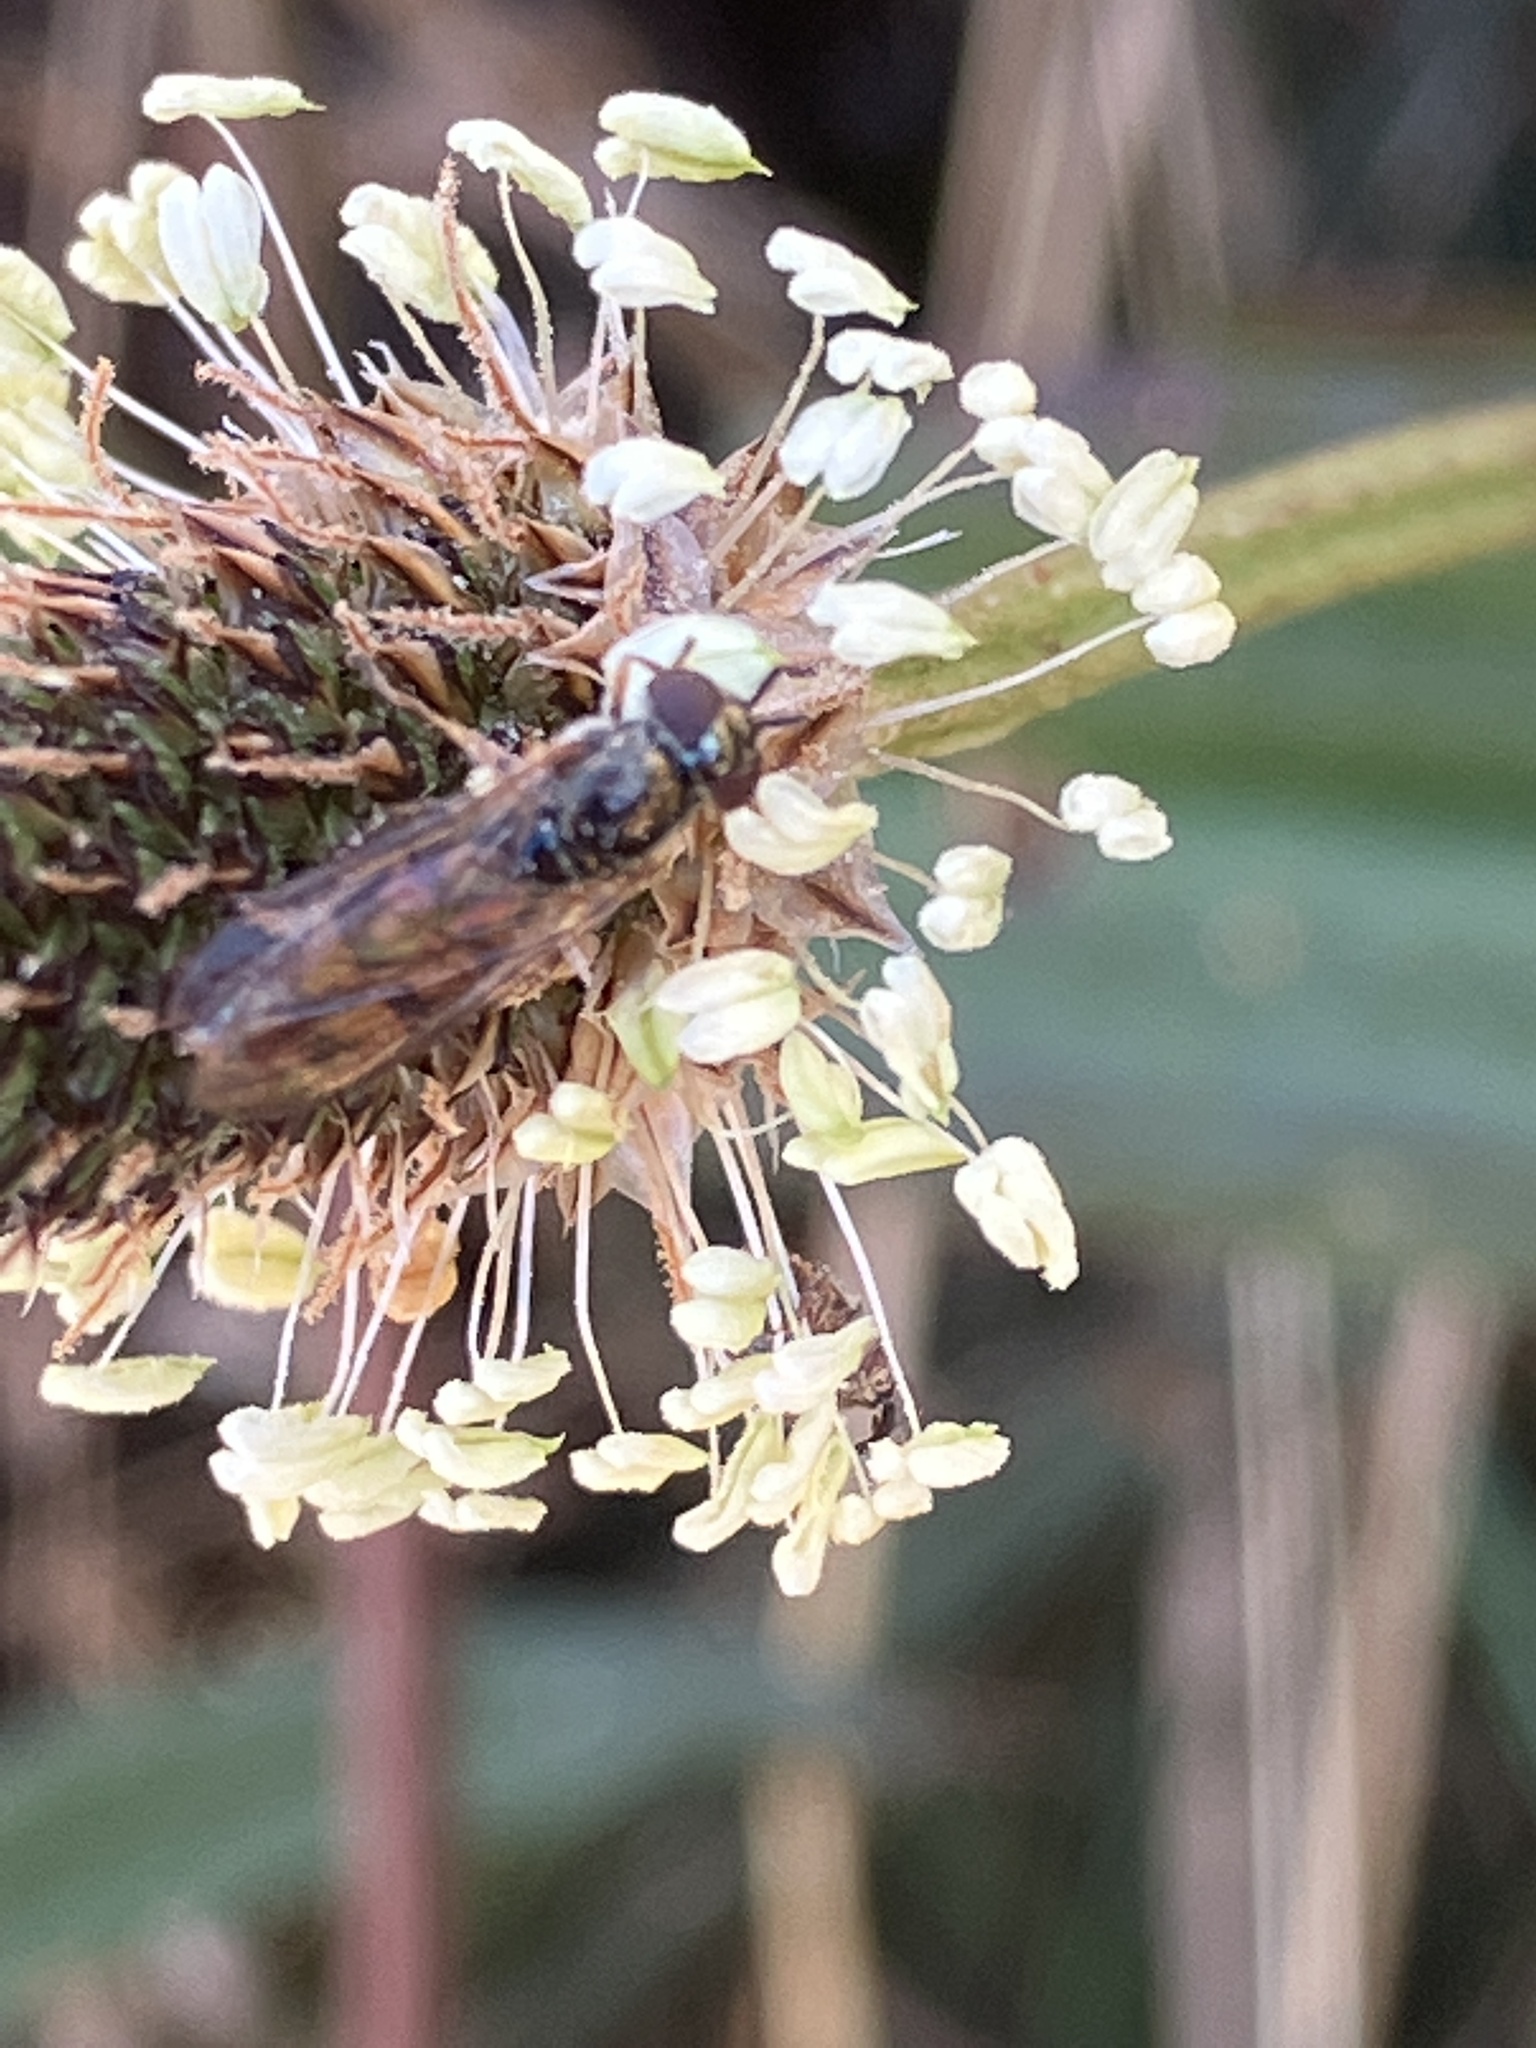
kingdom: Animalia
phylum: Arthropoda
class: Insecta
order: Diptera
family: Syrphidae
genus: Melanostoma
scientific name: Melanostoma
